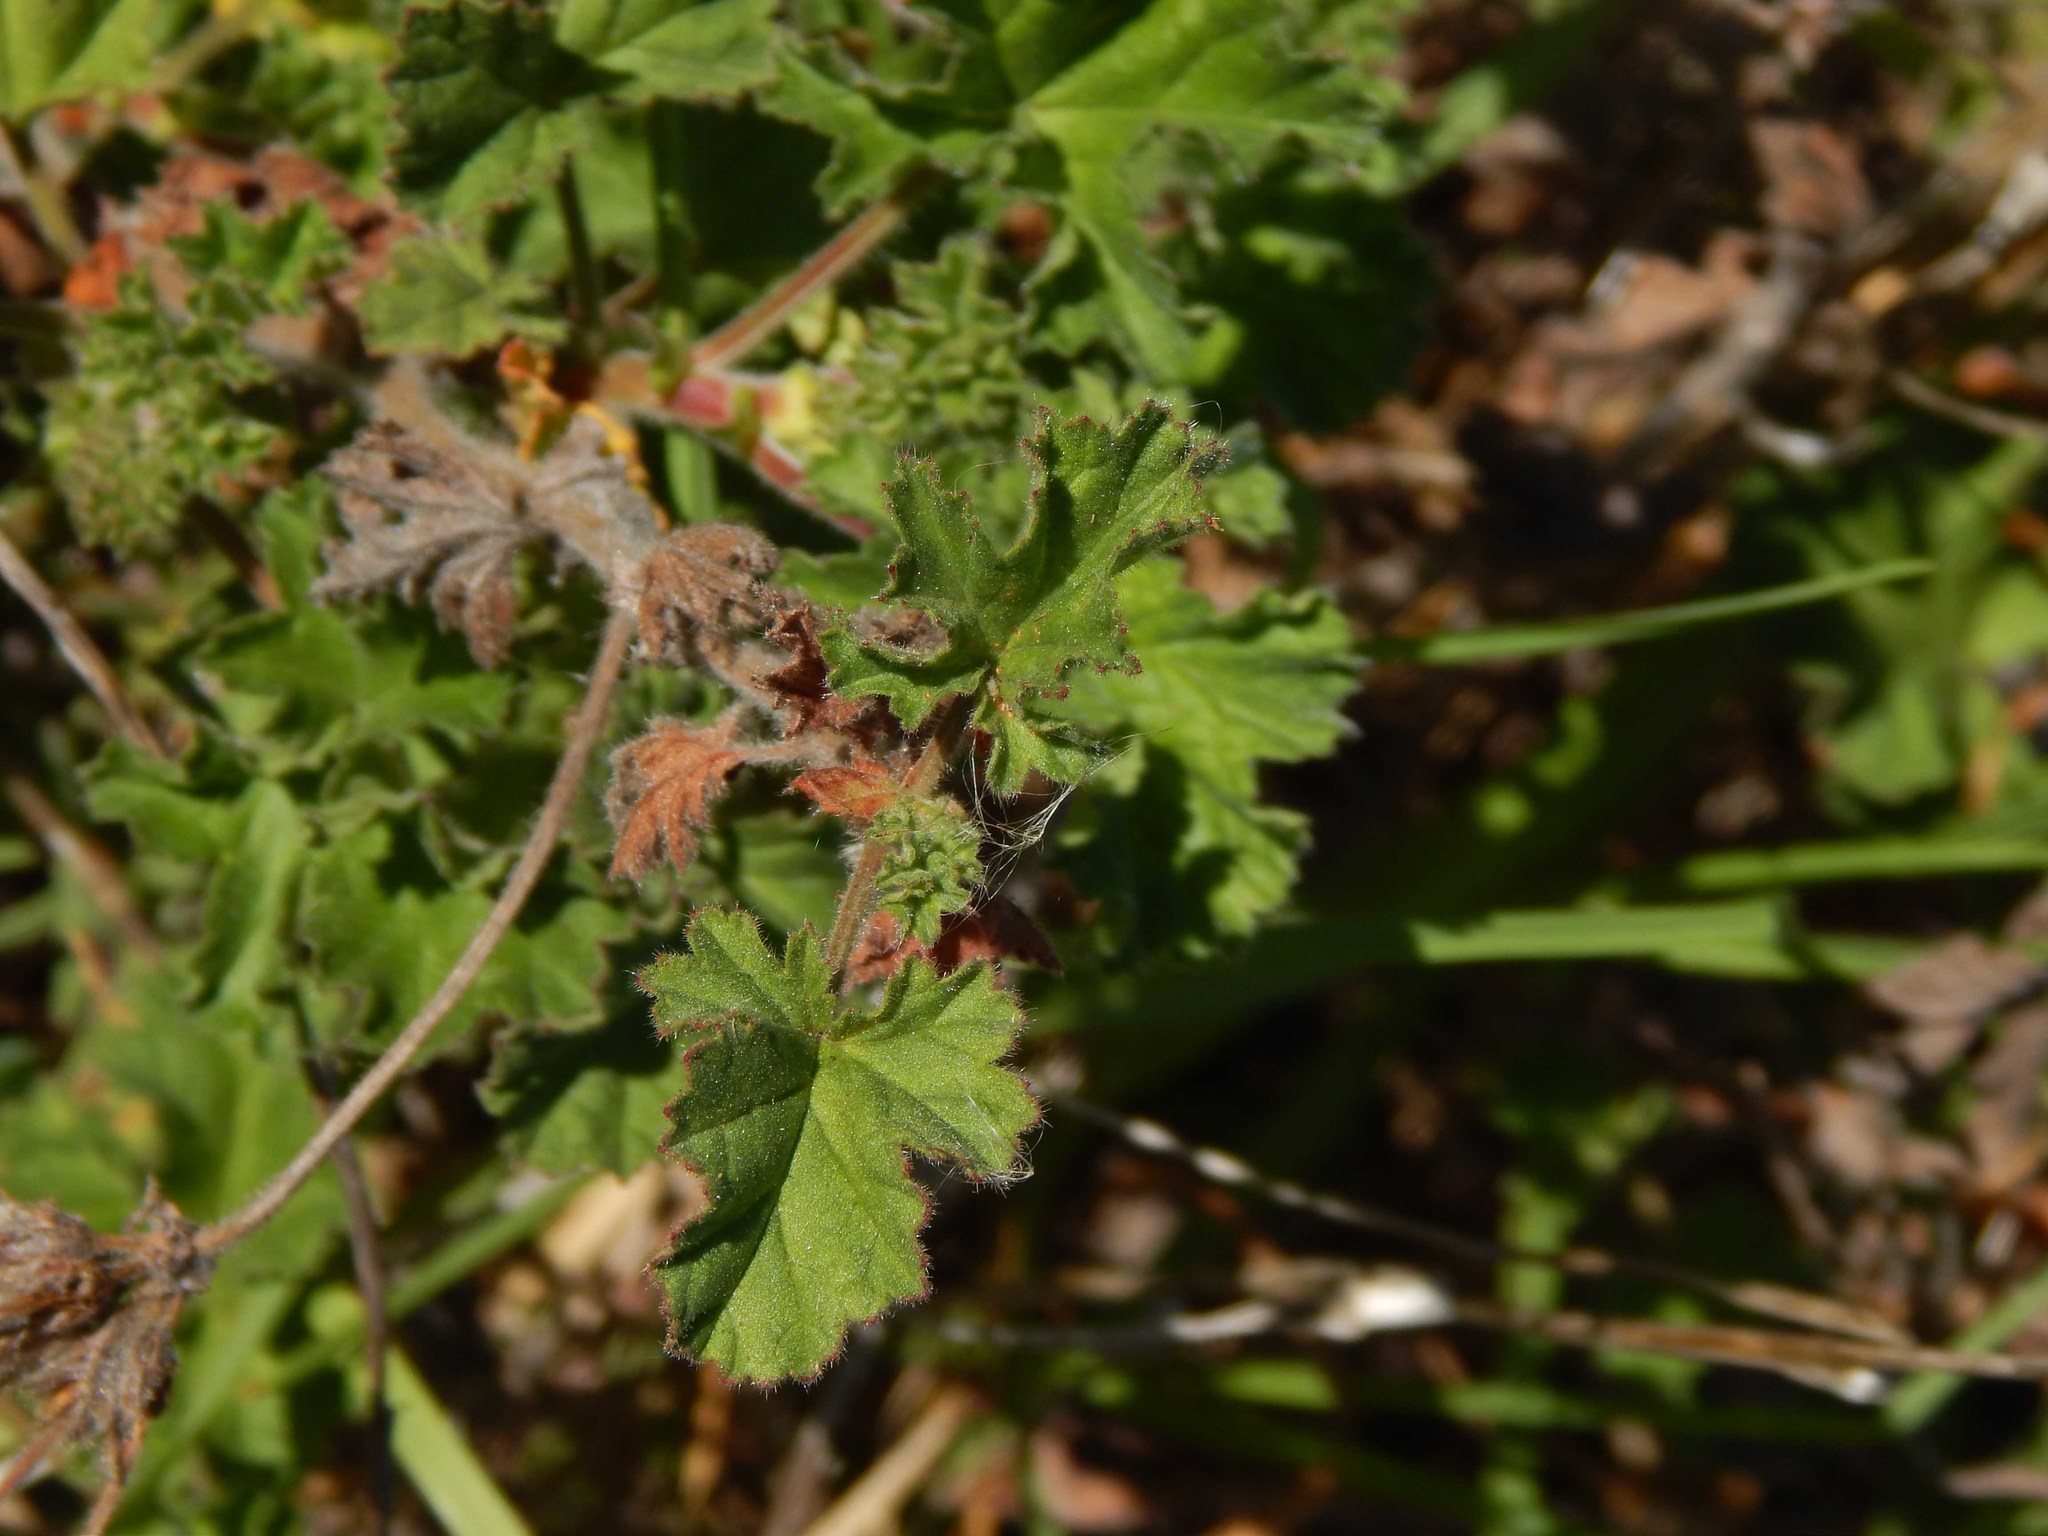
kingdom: Plantae
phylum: Tracheophyta
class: Magnoliopsida
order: Geraniales
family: Geraniaceae
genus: Pelargonium
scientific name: Pelargonium capitatum
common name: Rose scented geranium
